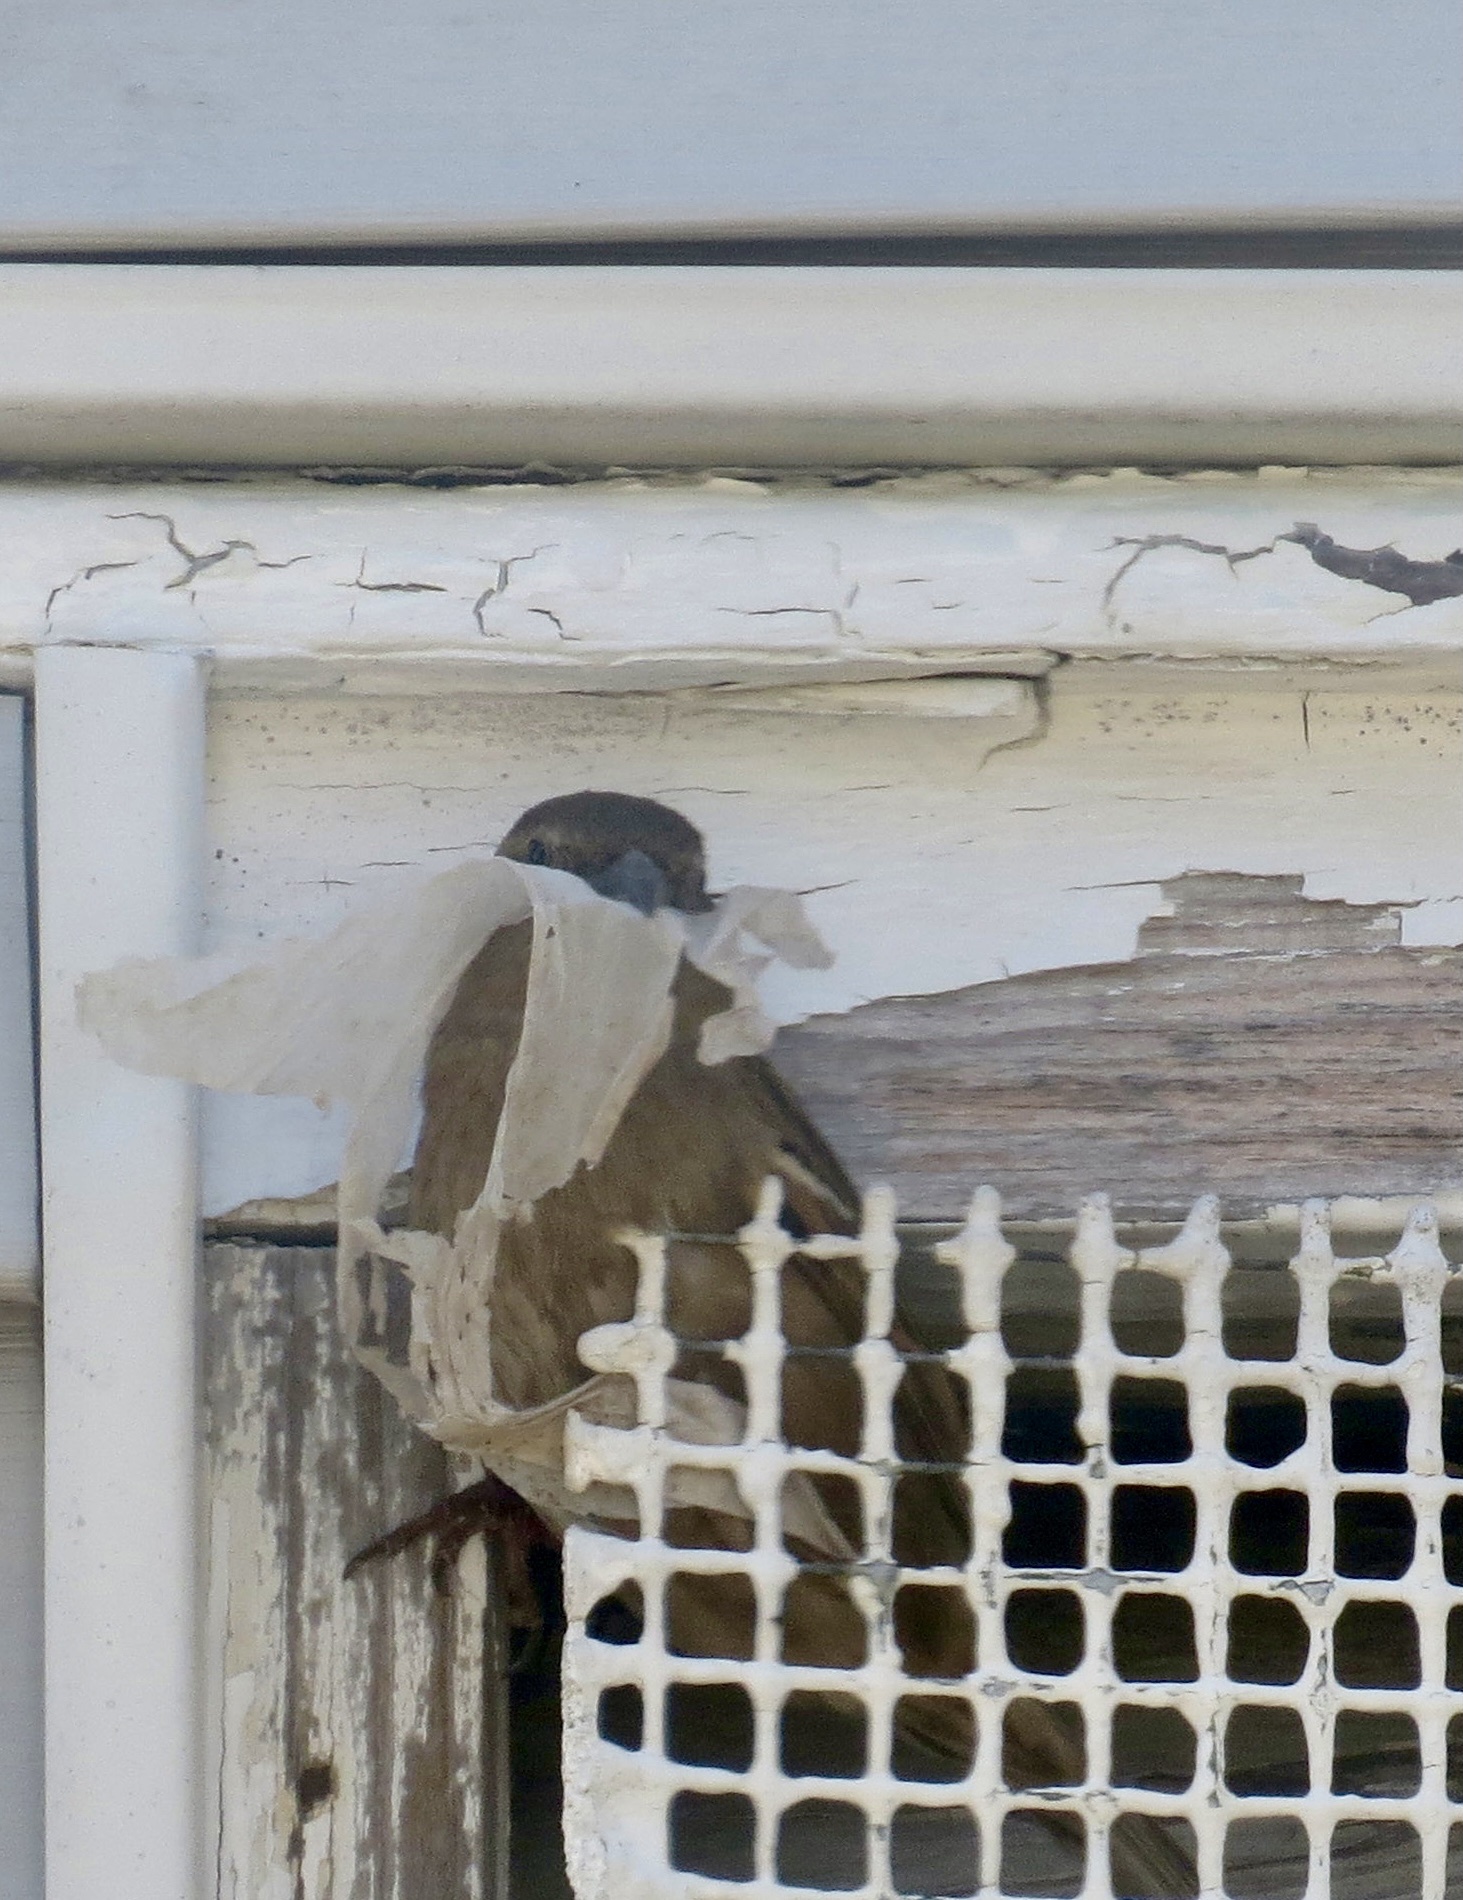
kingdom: Animalia
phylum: Chordata
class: Aves
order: Passeriformes
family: Passeridae
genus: Passer
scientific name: Passer domesticus
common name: House sparrow
